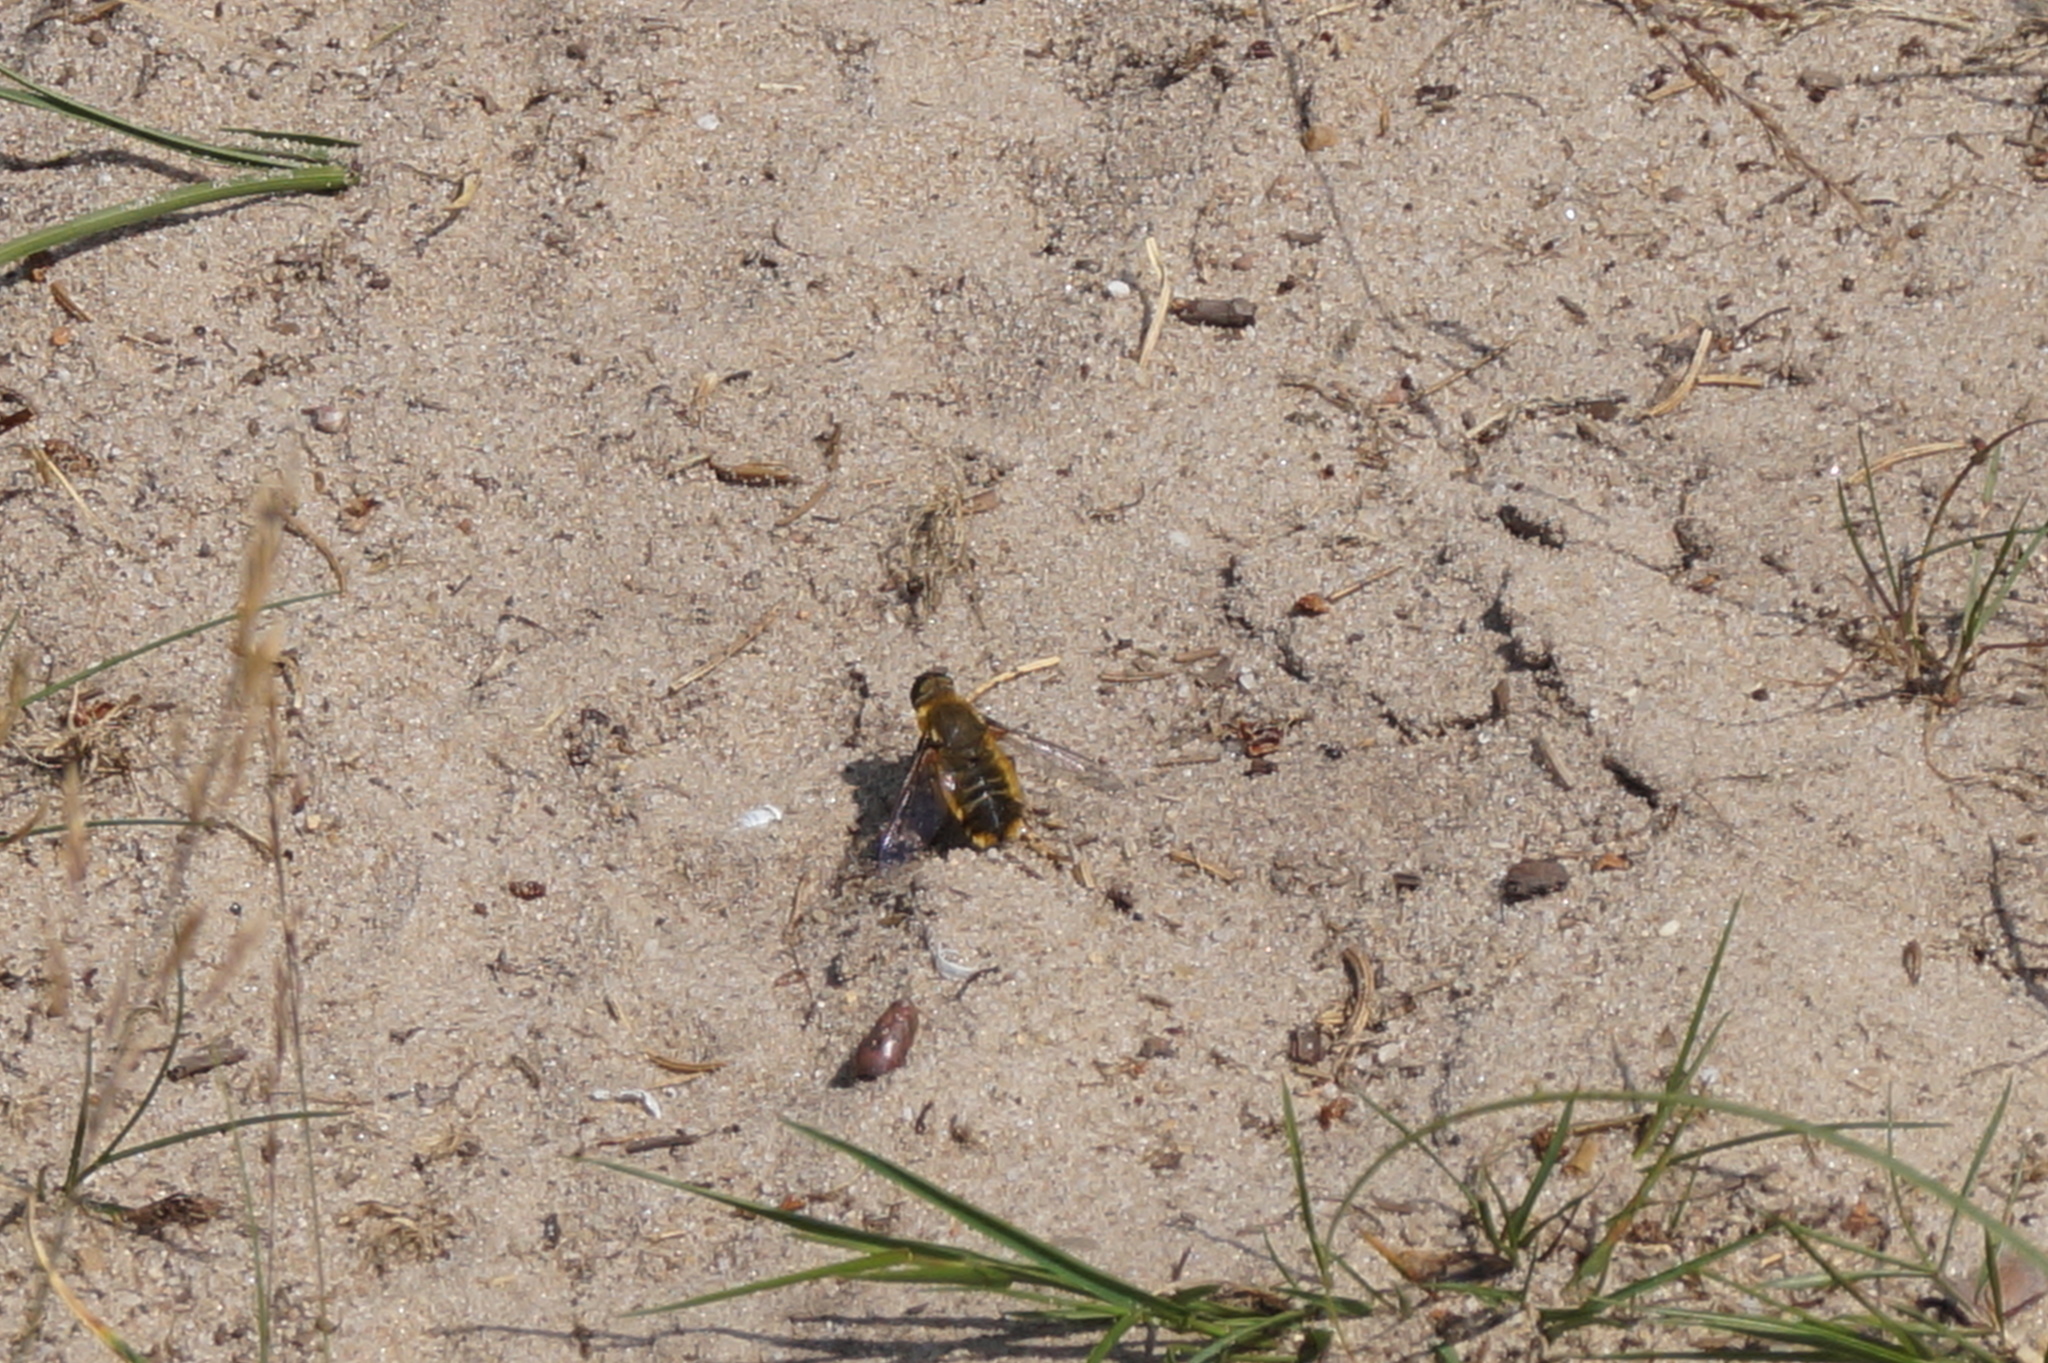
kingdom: Animalia
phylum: Arthropoda
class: Insecta
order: Diptera
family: Bombyliidae
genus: Villa
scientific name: Villa hottentotta
